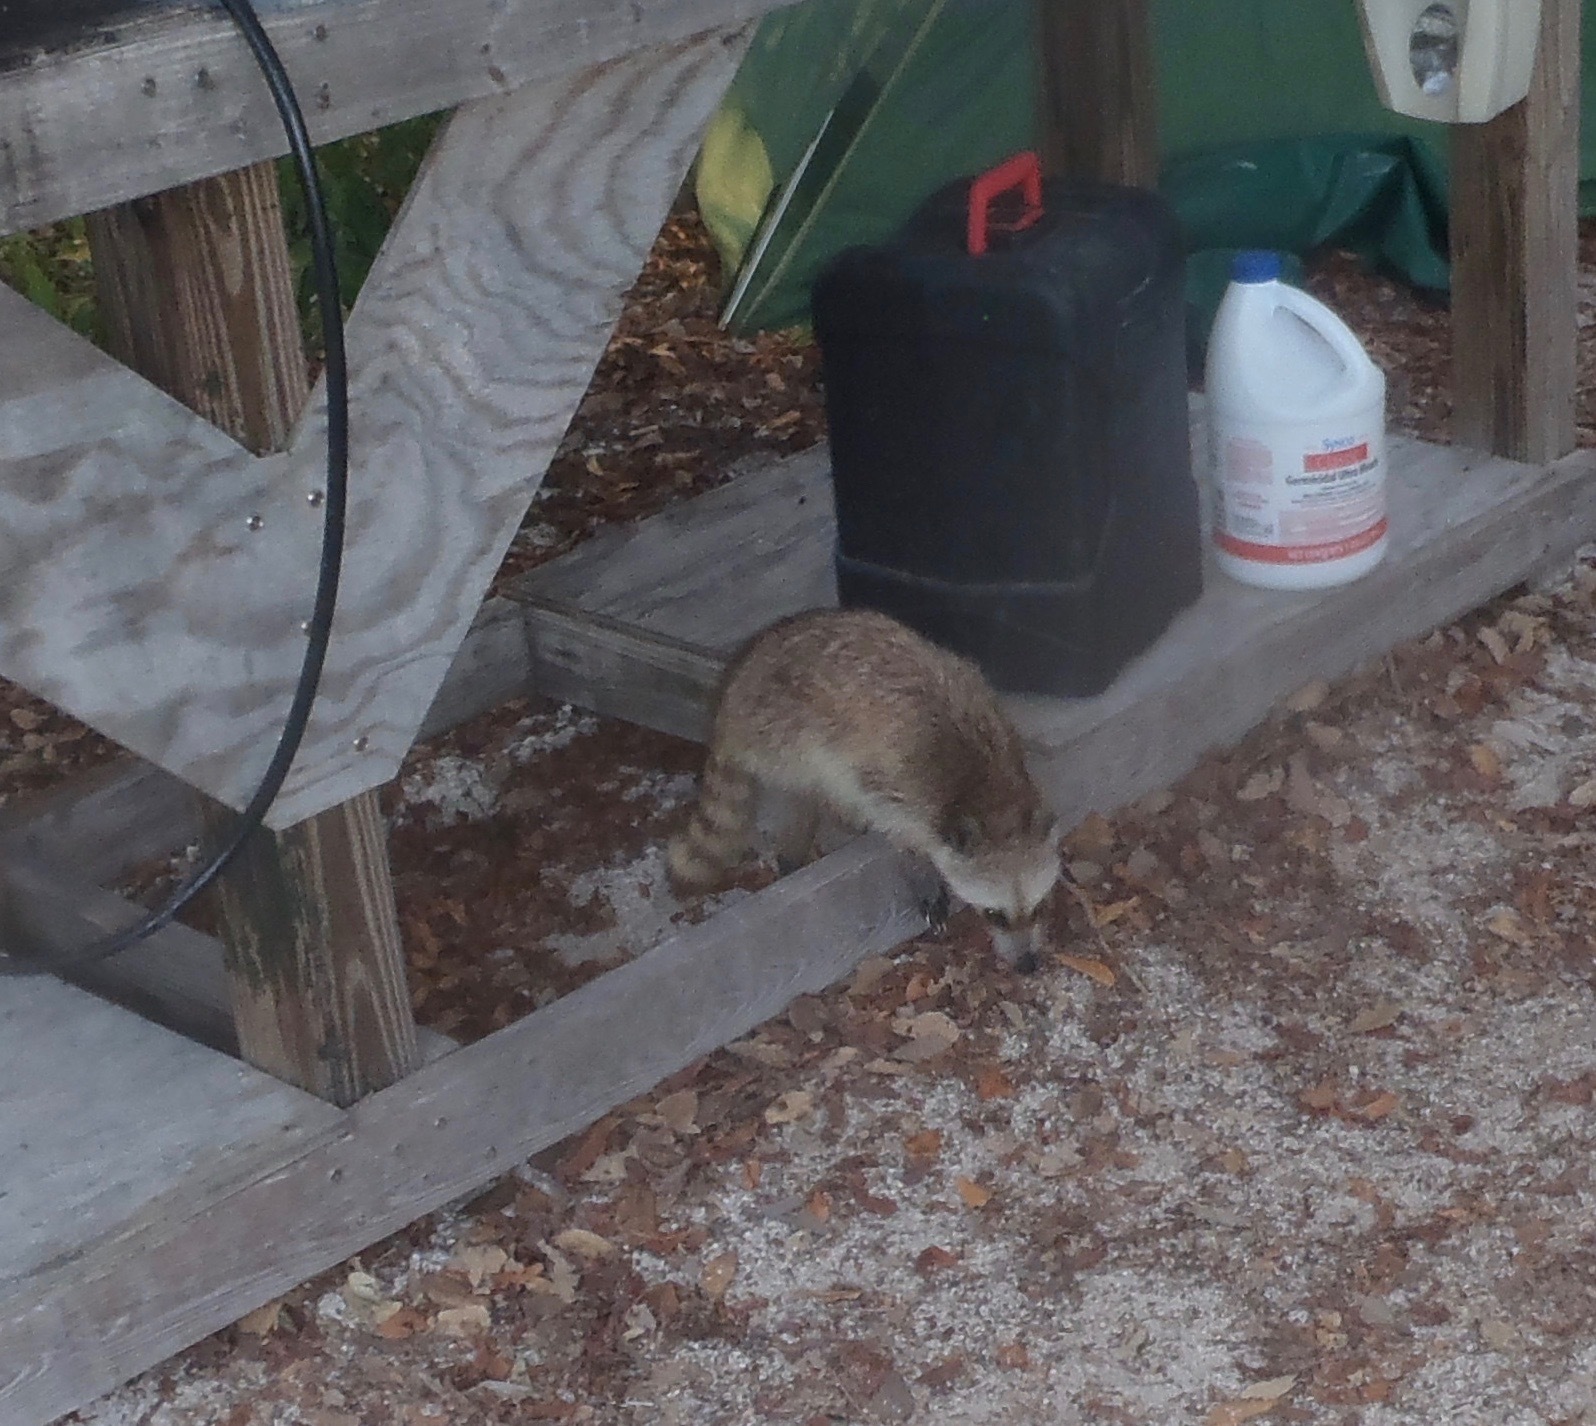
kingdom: Animalia
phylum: Chordata
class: Mammalia
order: Carnivora
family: Procyonidae
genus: Procyon
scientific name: Procyon lotor
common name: Raccoon
